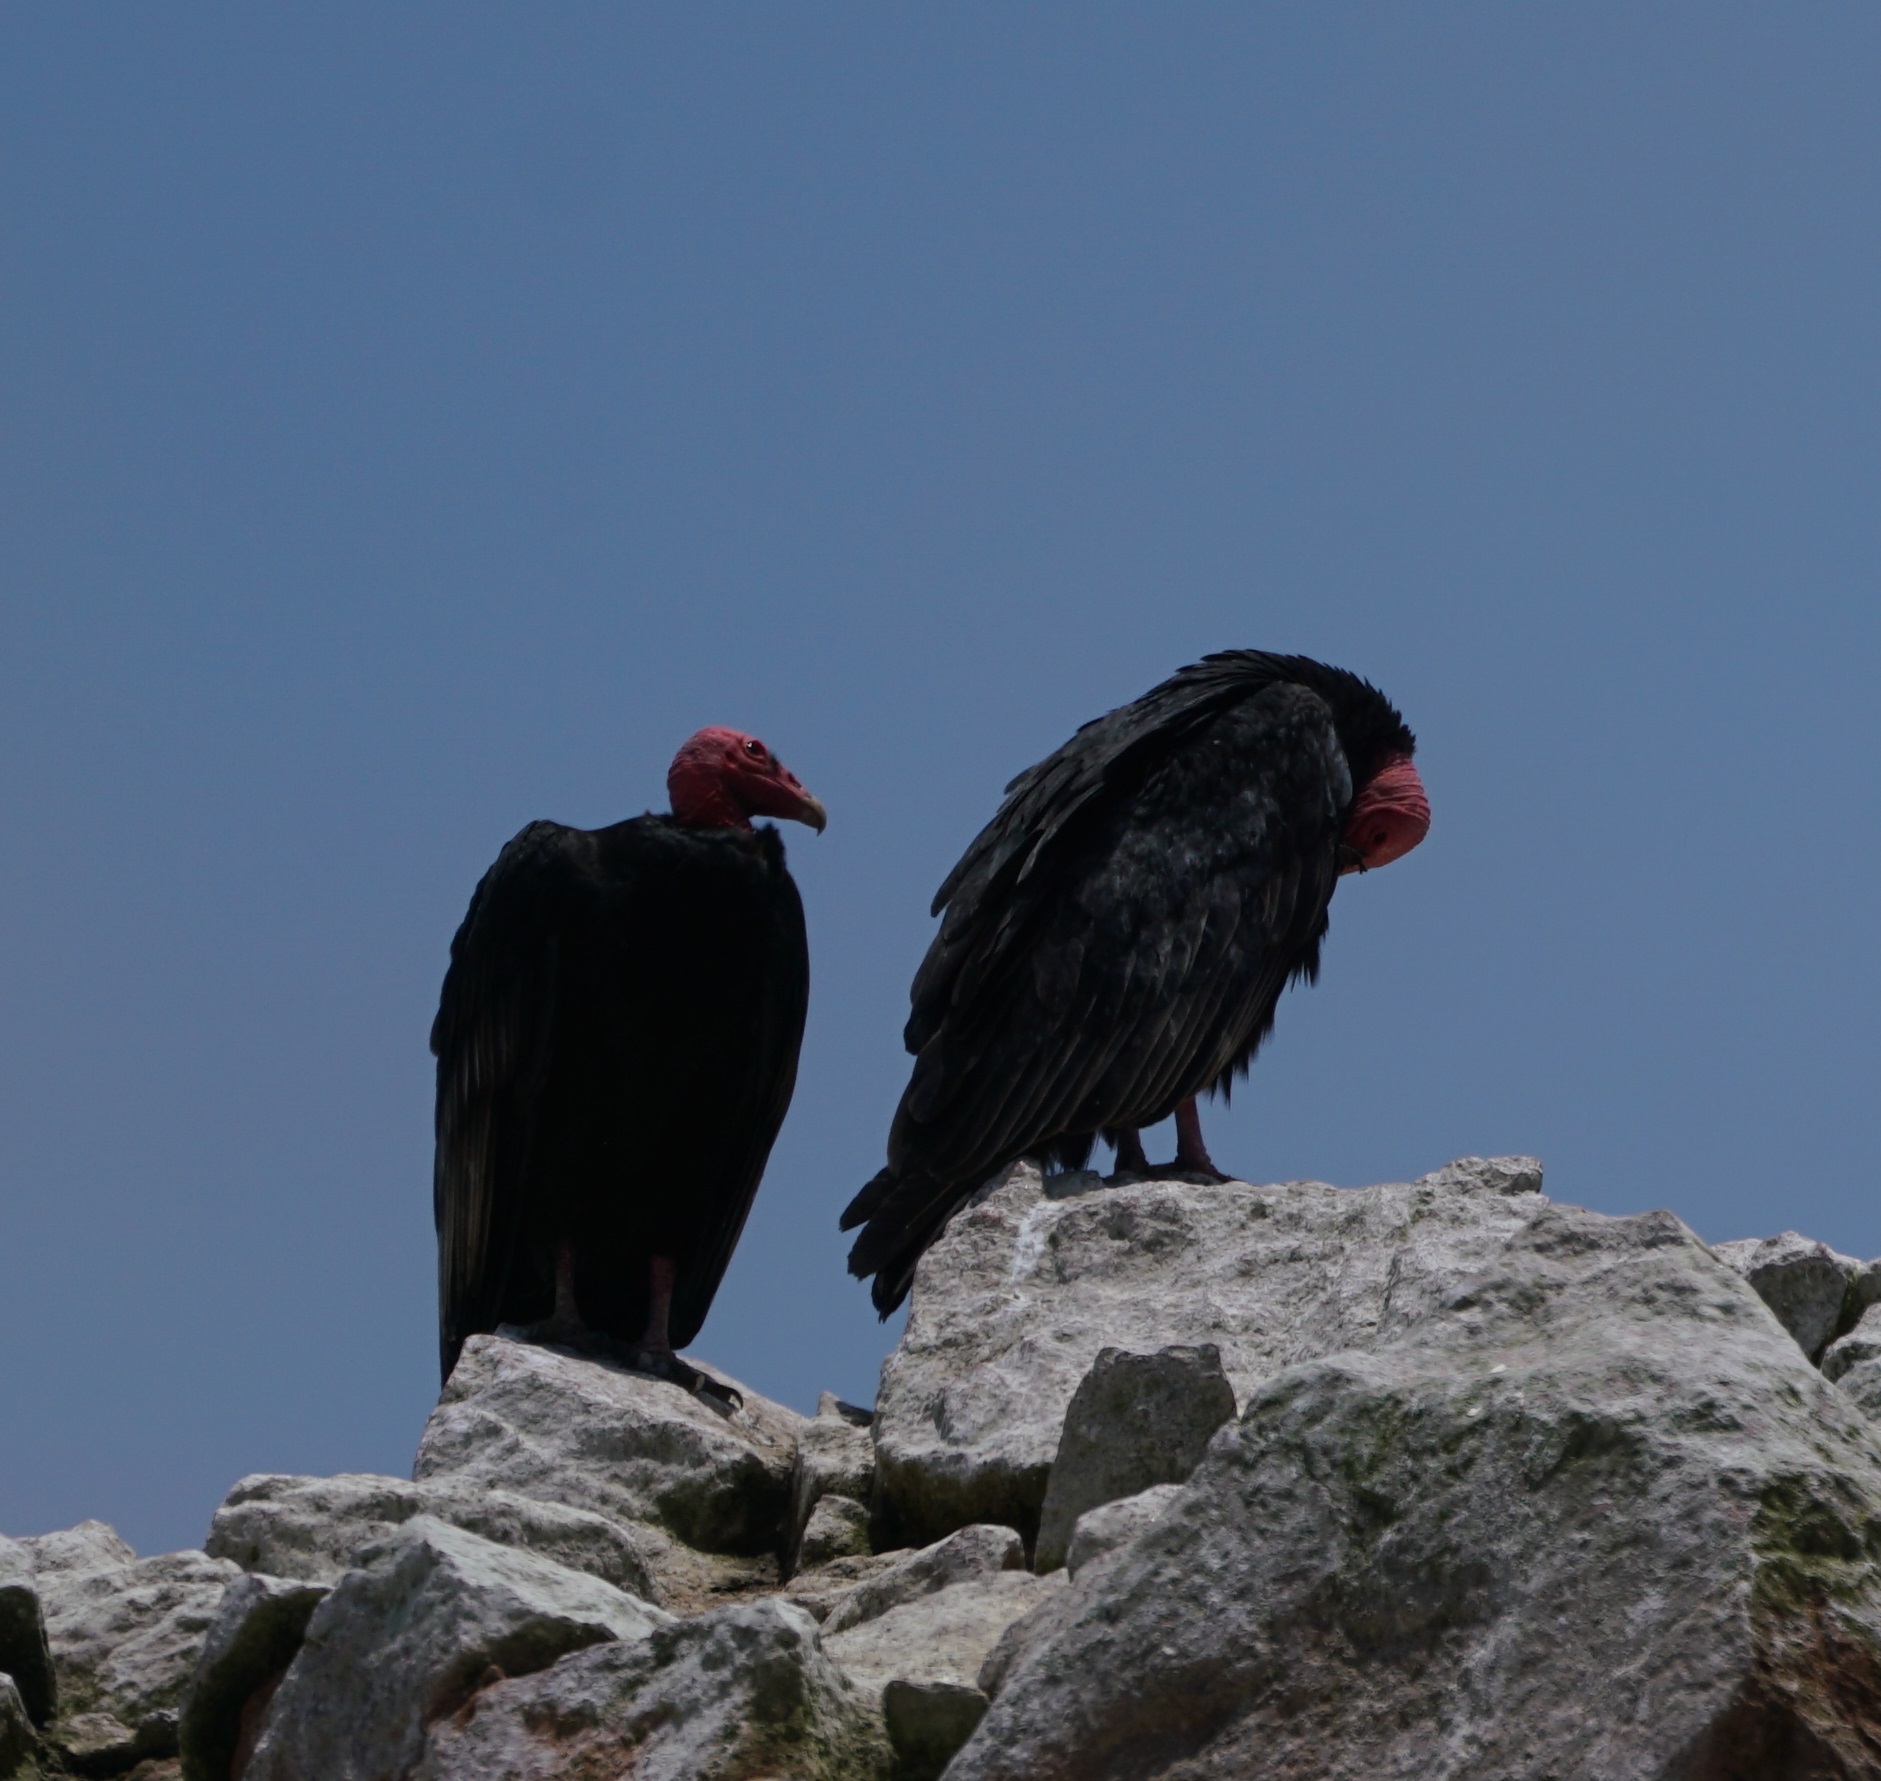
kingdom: Animalia
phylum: Chordata
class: Aves
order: Accipitriformes
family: Cathartidae
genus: Cathartes
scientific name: Cathartes aura
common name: Turkey vulture
